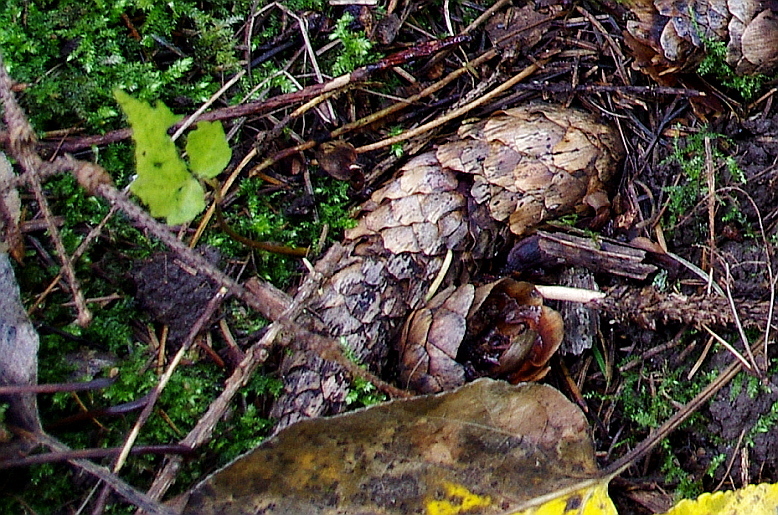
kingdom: Plantae
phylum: Tracheophyta
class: Pinopsida
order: Pinales
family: Pinaceae
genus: Picea
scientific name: Picea abies
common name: Norway spruce
